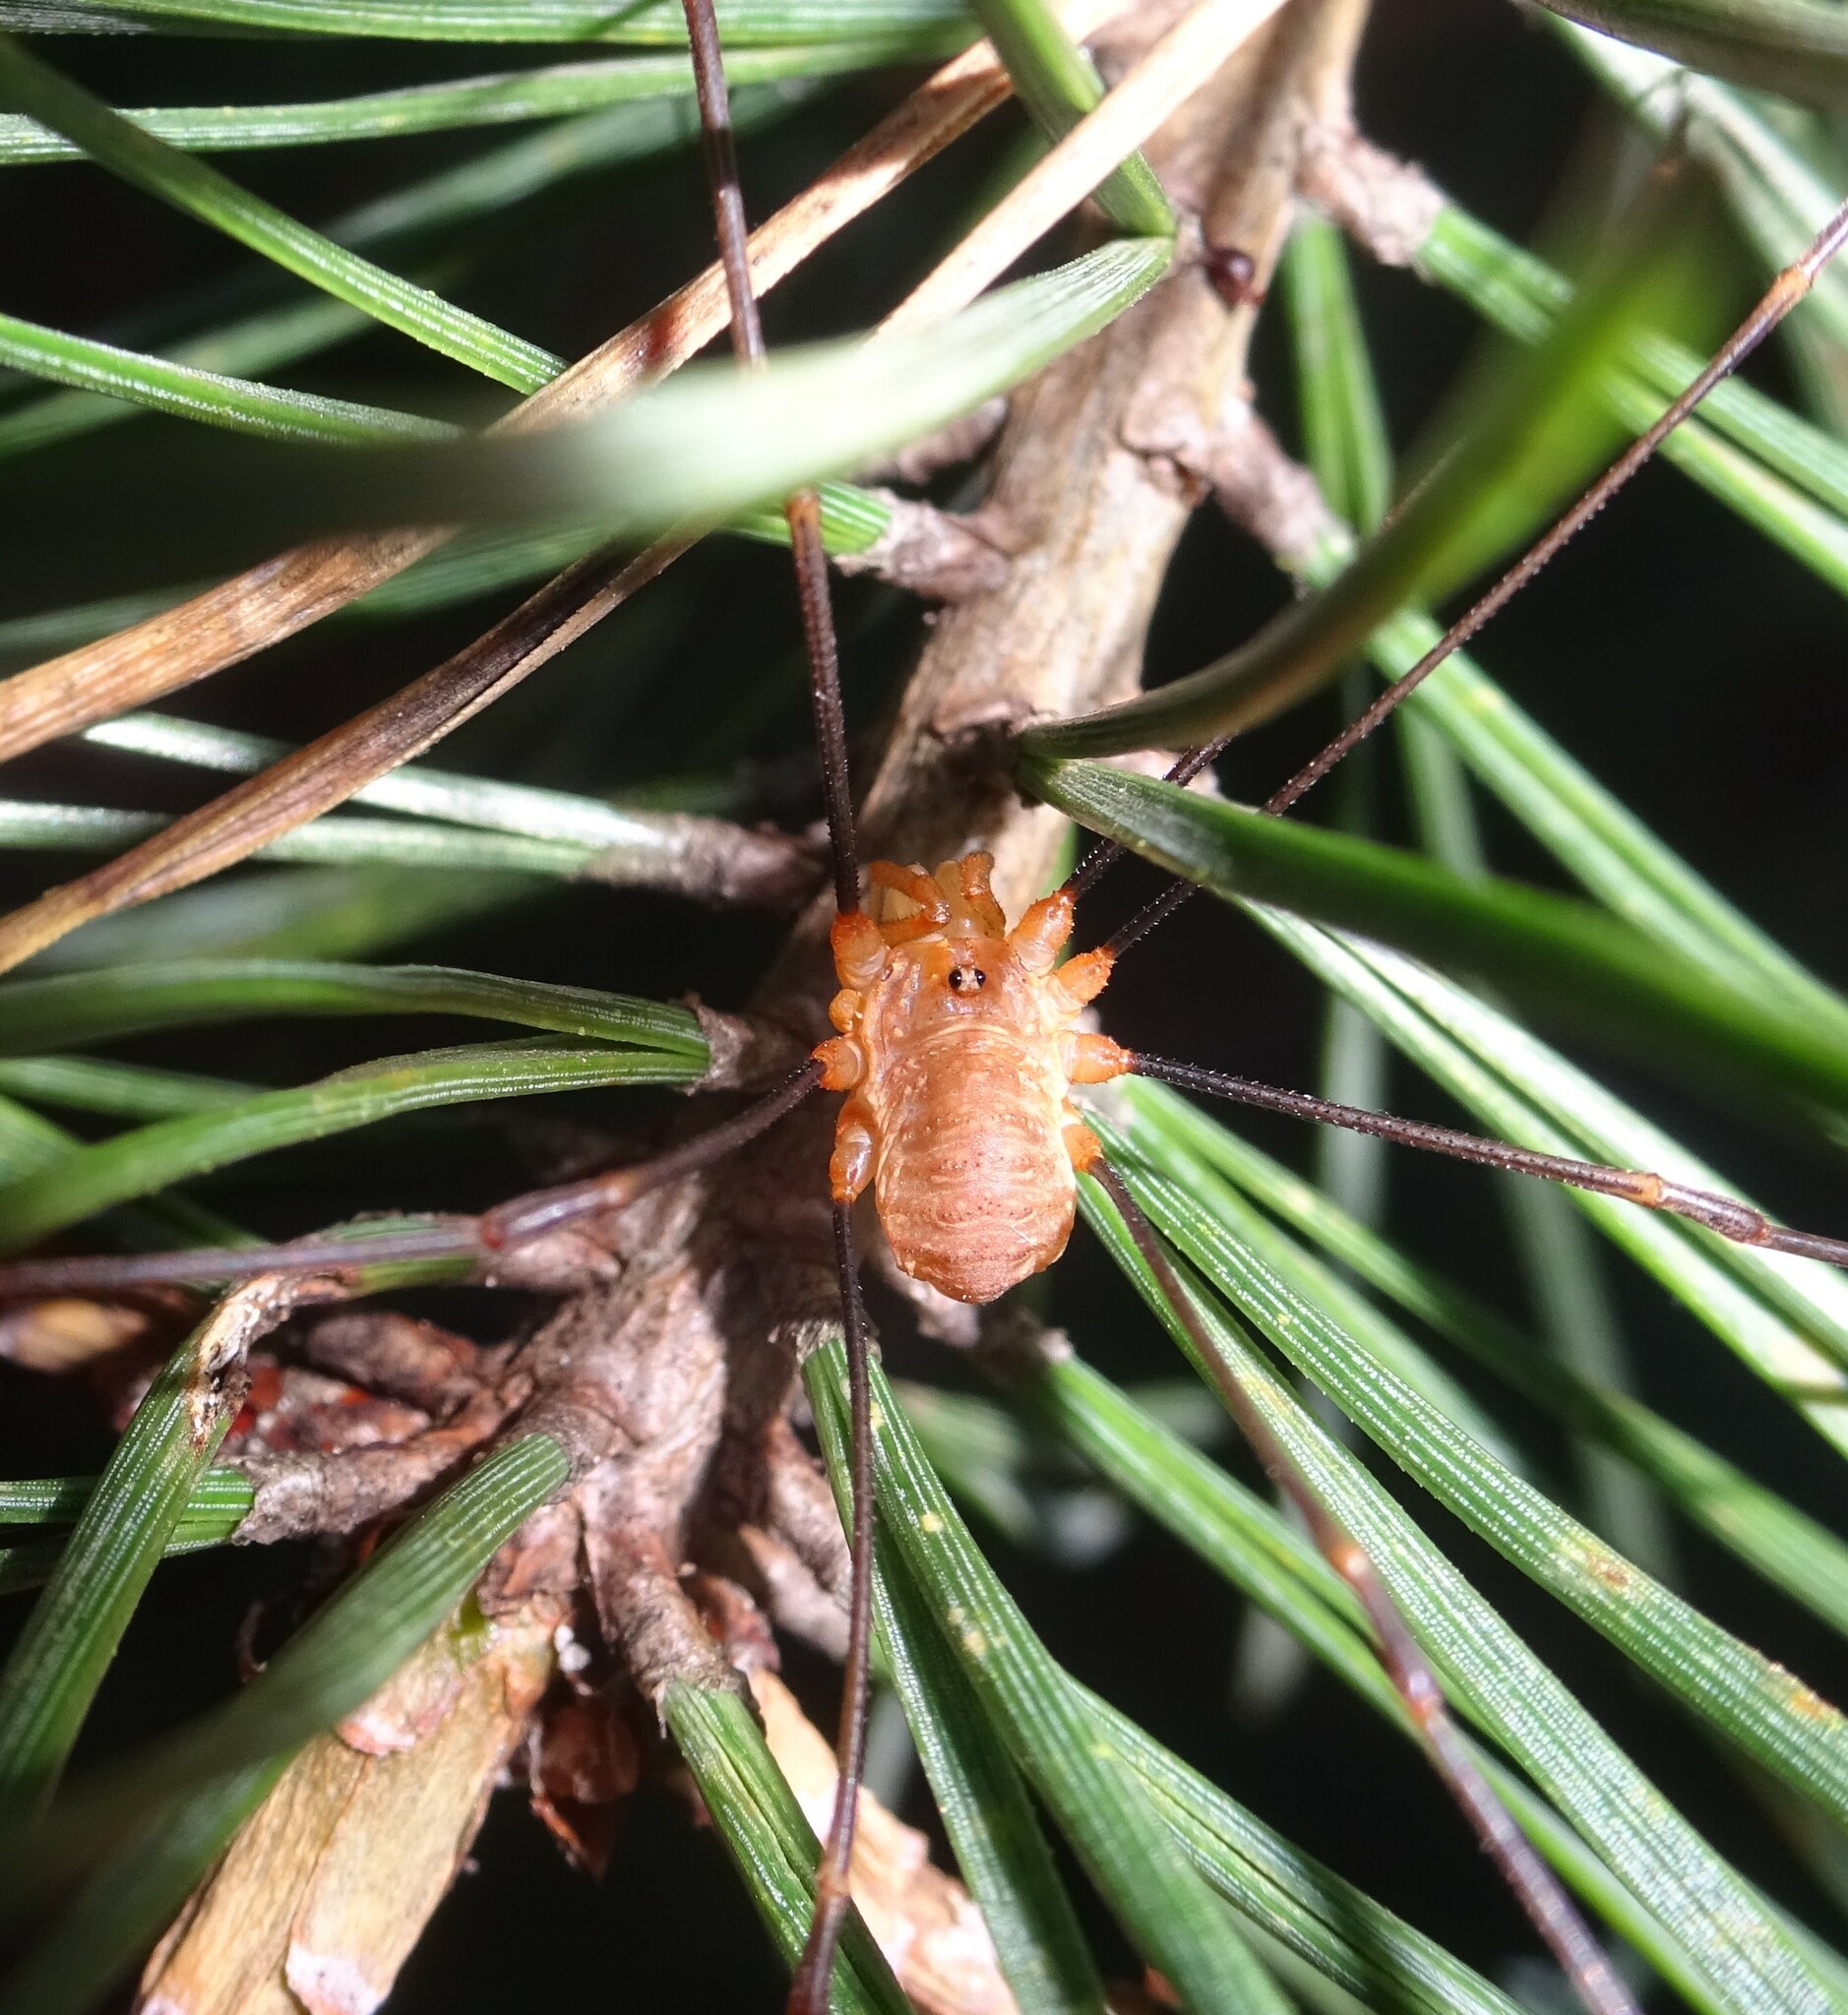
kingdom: Animalia
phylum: Arthropoda
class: Arachnida
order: Opiliones
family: Phalangiidae
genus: Opilio
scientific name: Opilio canestrinii
